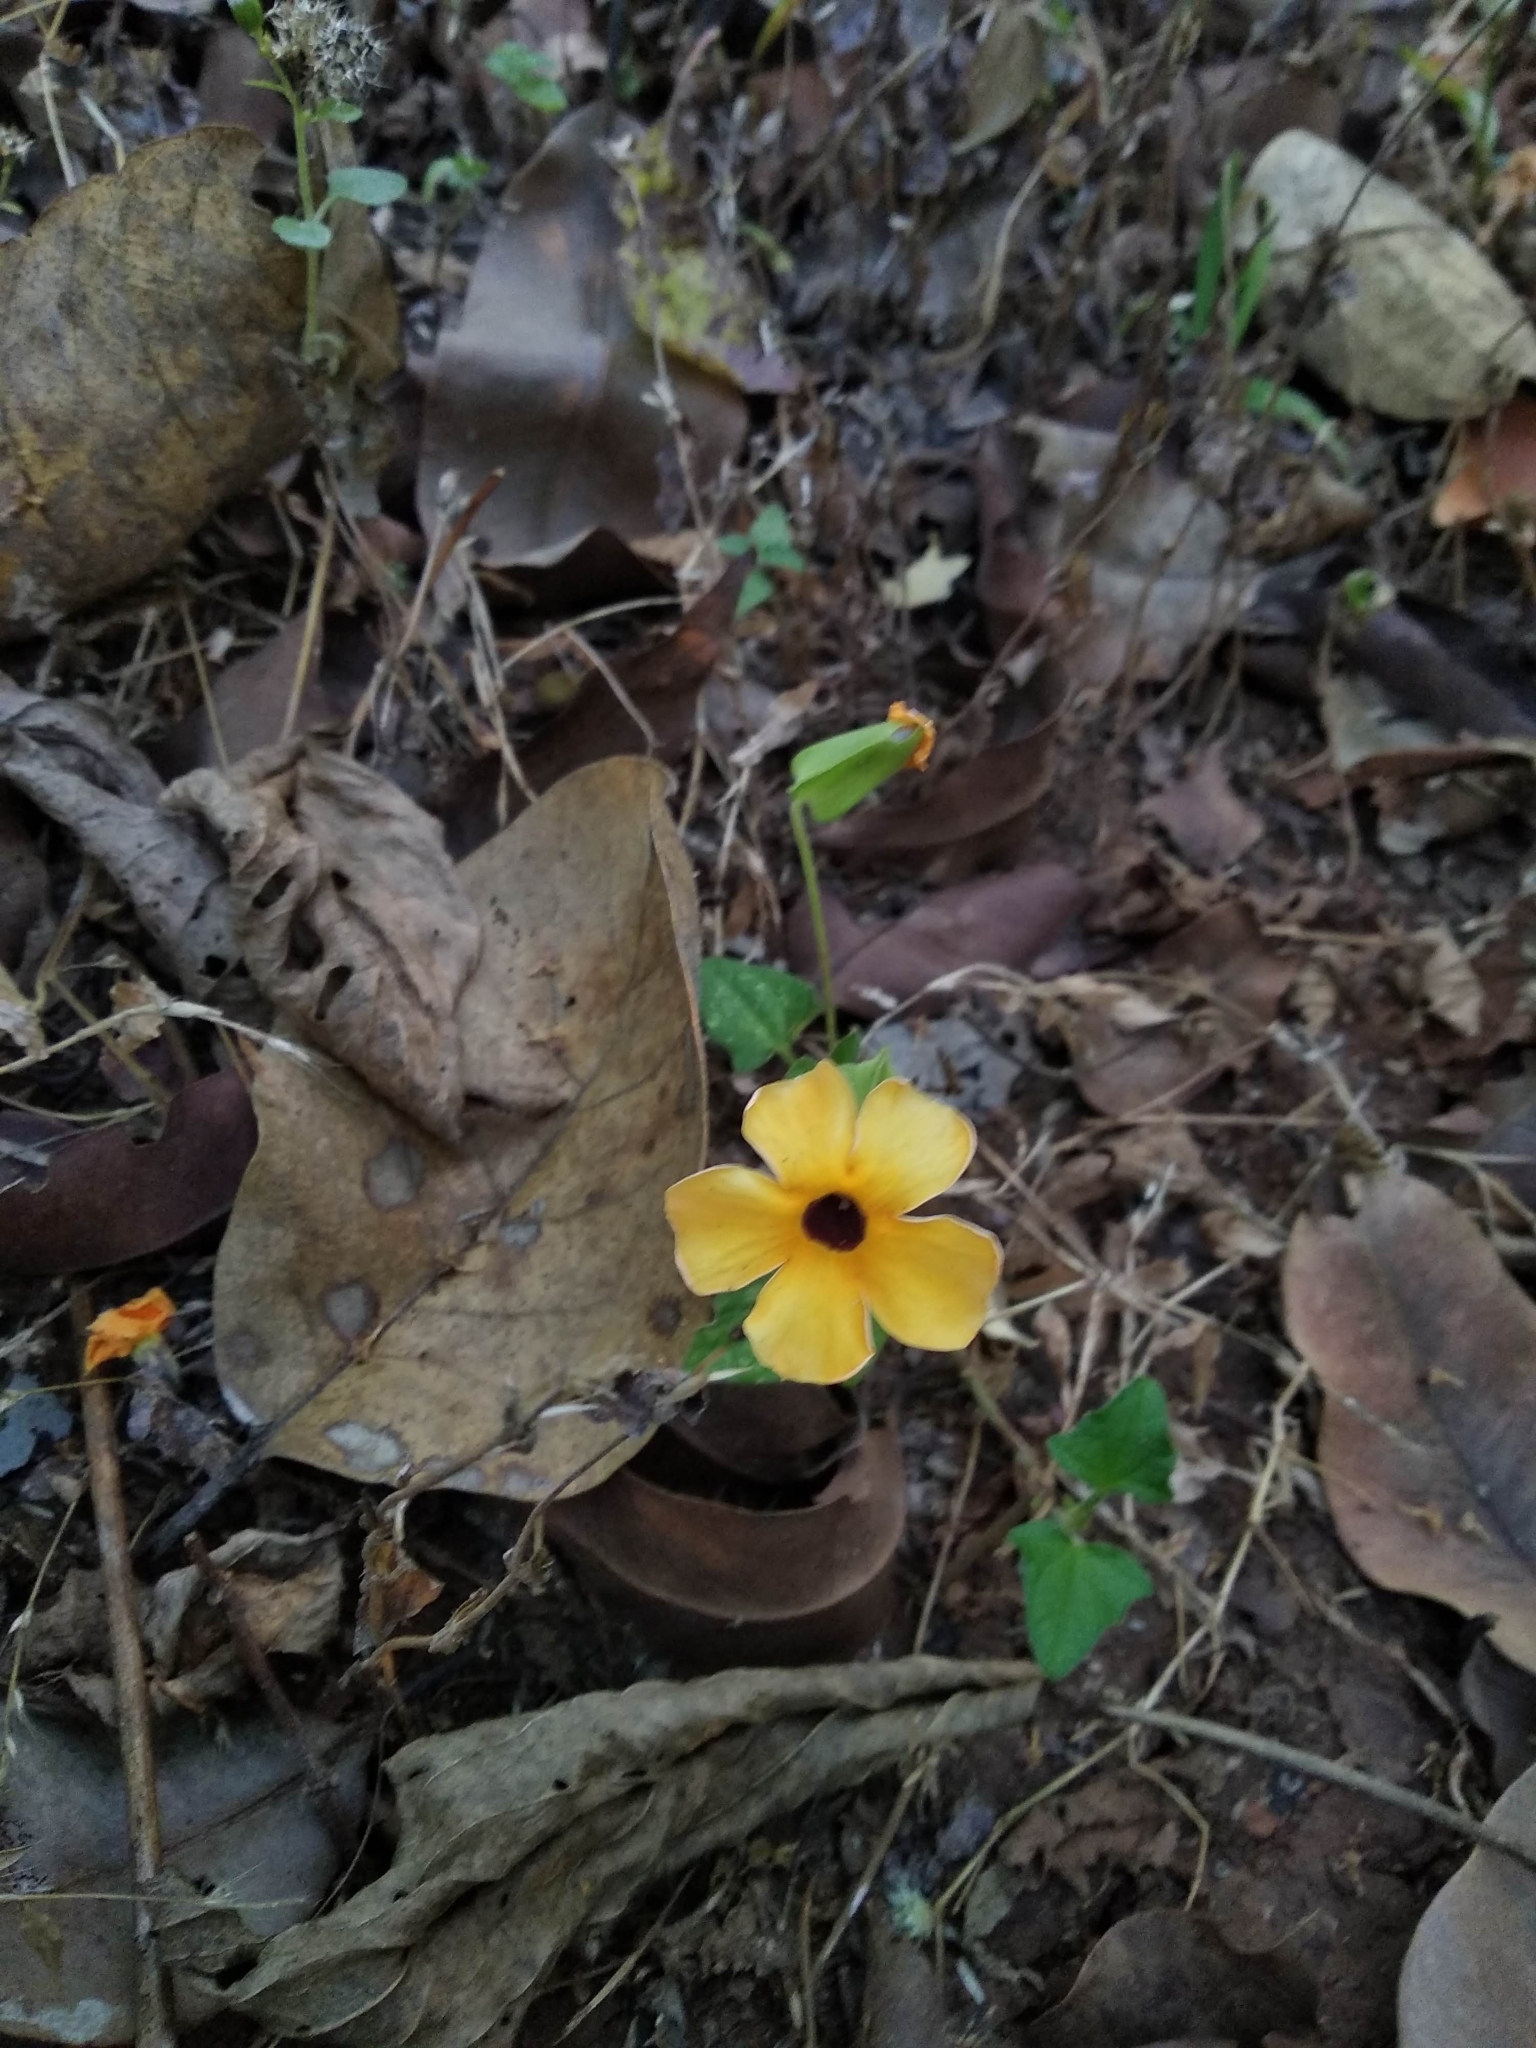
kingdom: Plantae
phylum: Tracheophyta
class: Magnoliopsida
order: Lamiales
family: Acanthaceae
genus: Thunbergia
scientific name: Thunbergia alata
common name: Blackeyed susan vine
